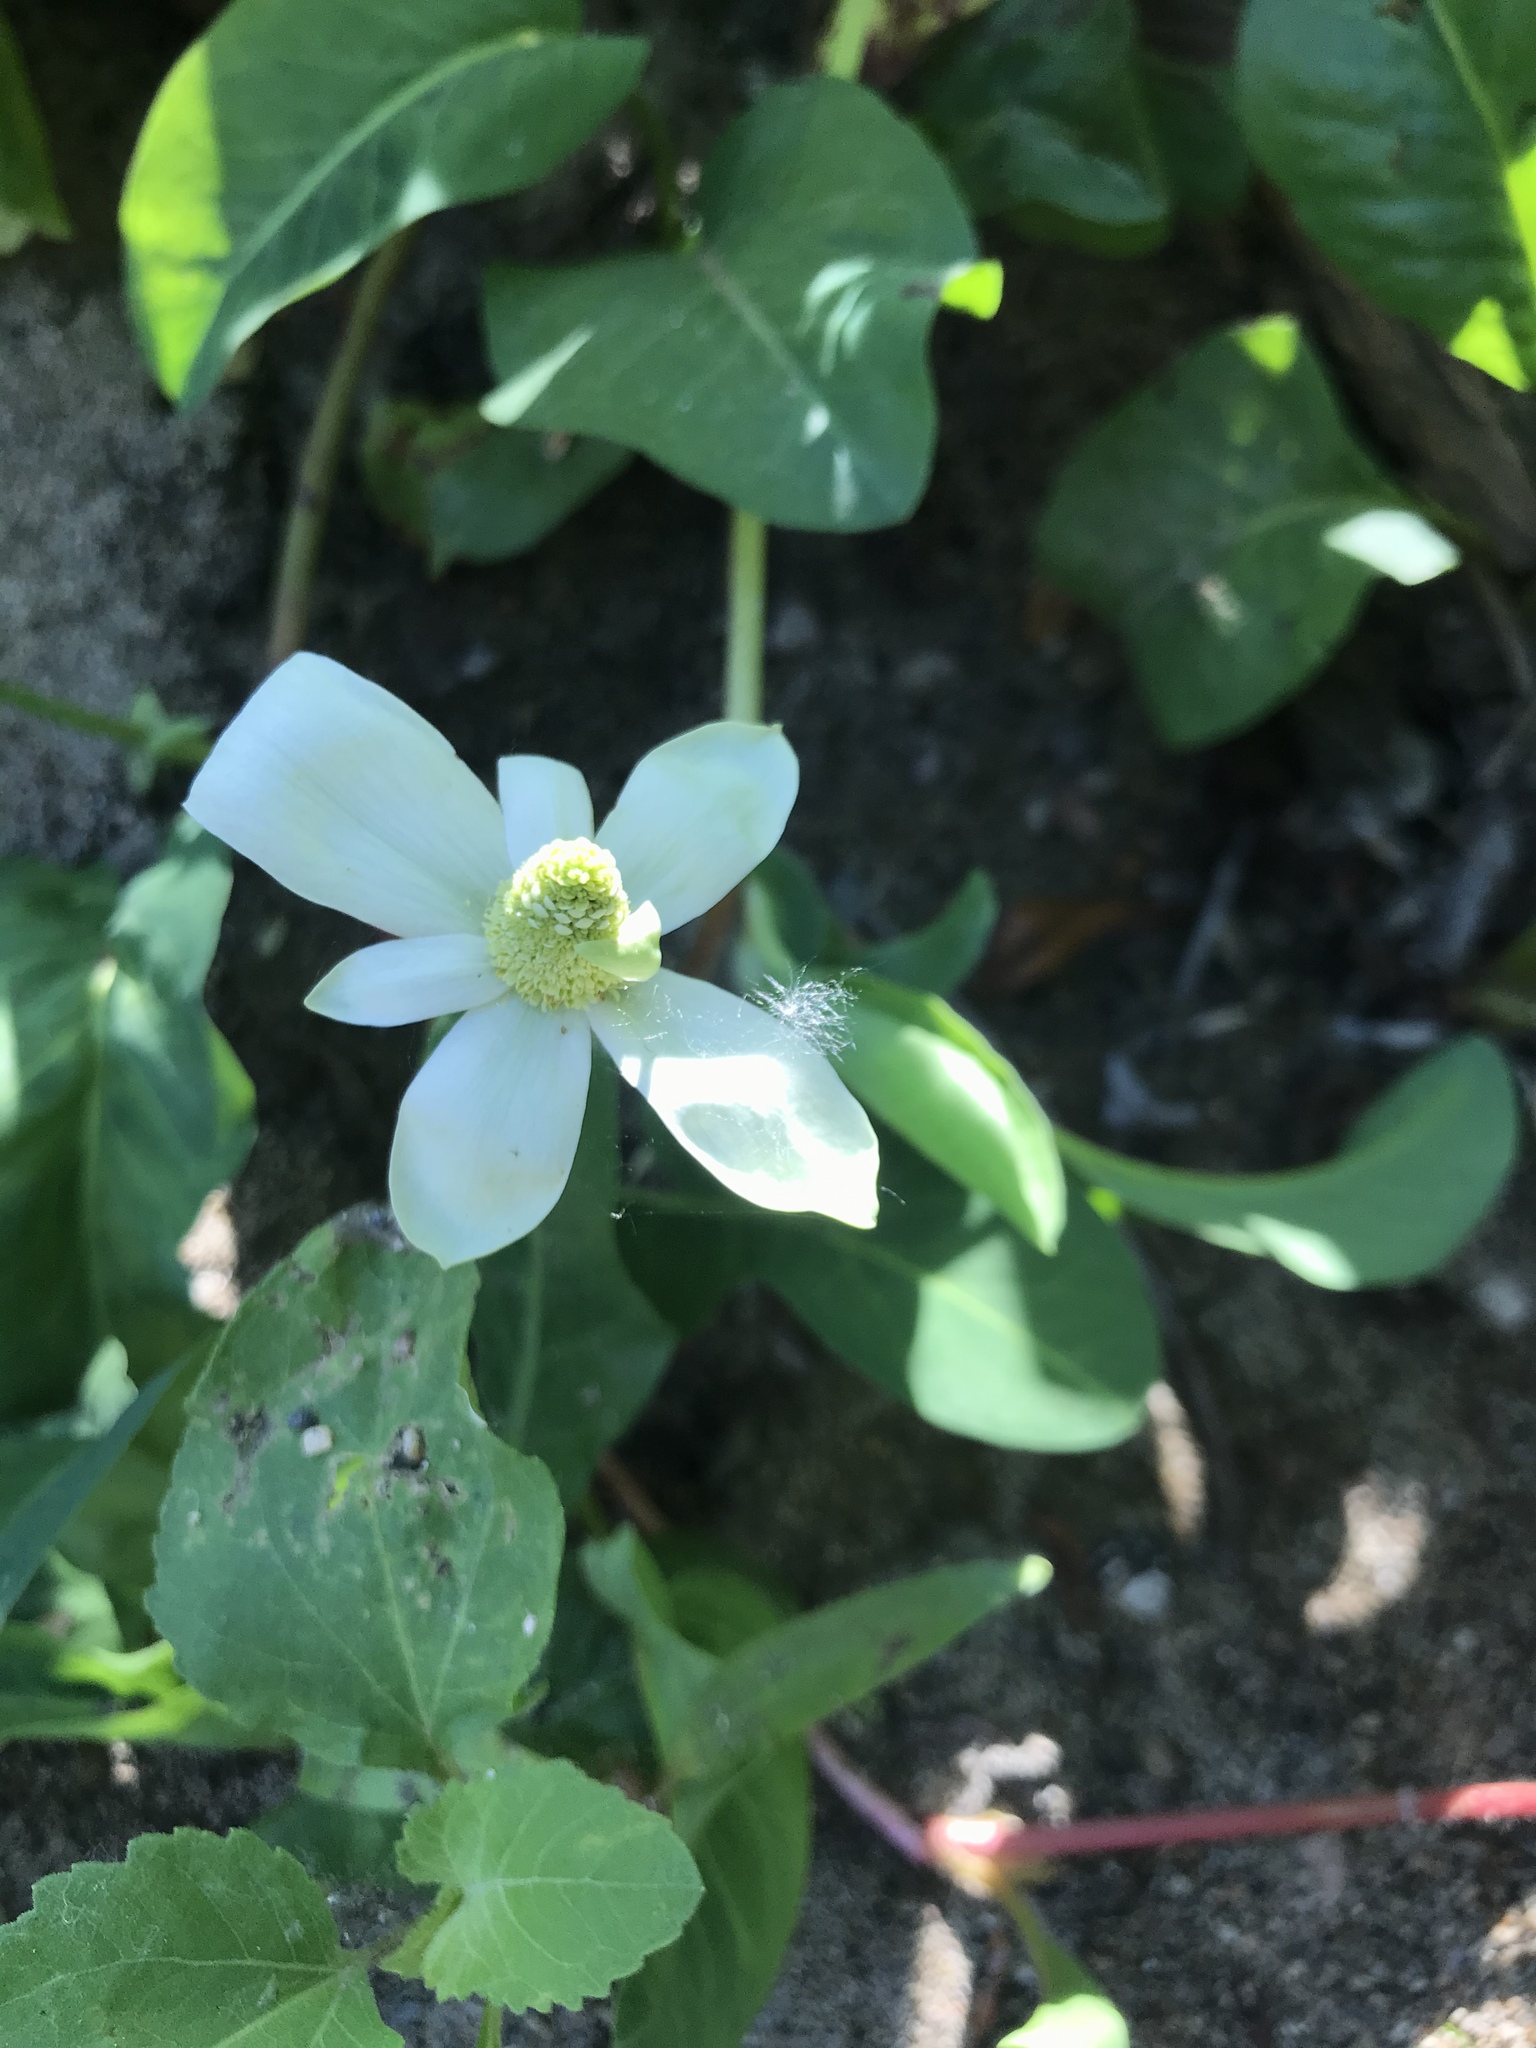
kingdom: Plantae
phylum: Tracheophyta
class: Magnoliopsida
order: Piperales
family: Saururaceae
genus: Anemopsis
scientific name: Anemopsis californica
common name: Apache-beads
